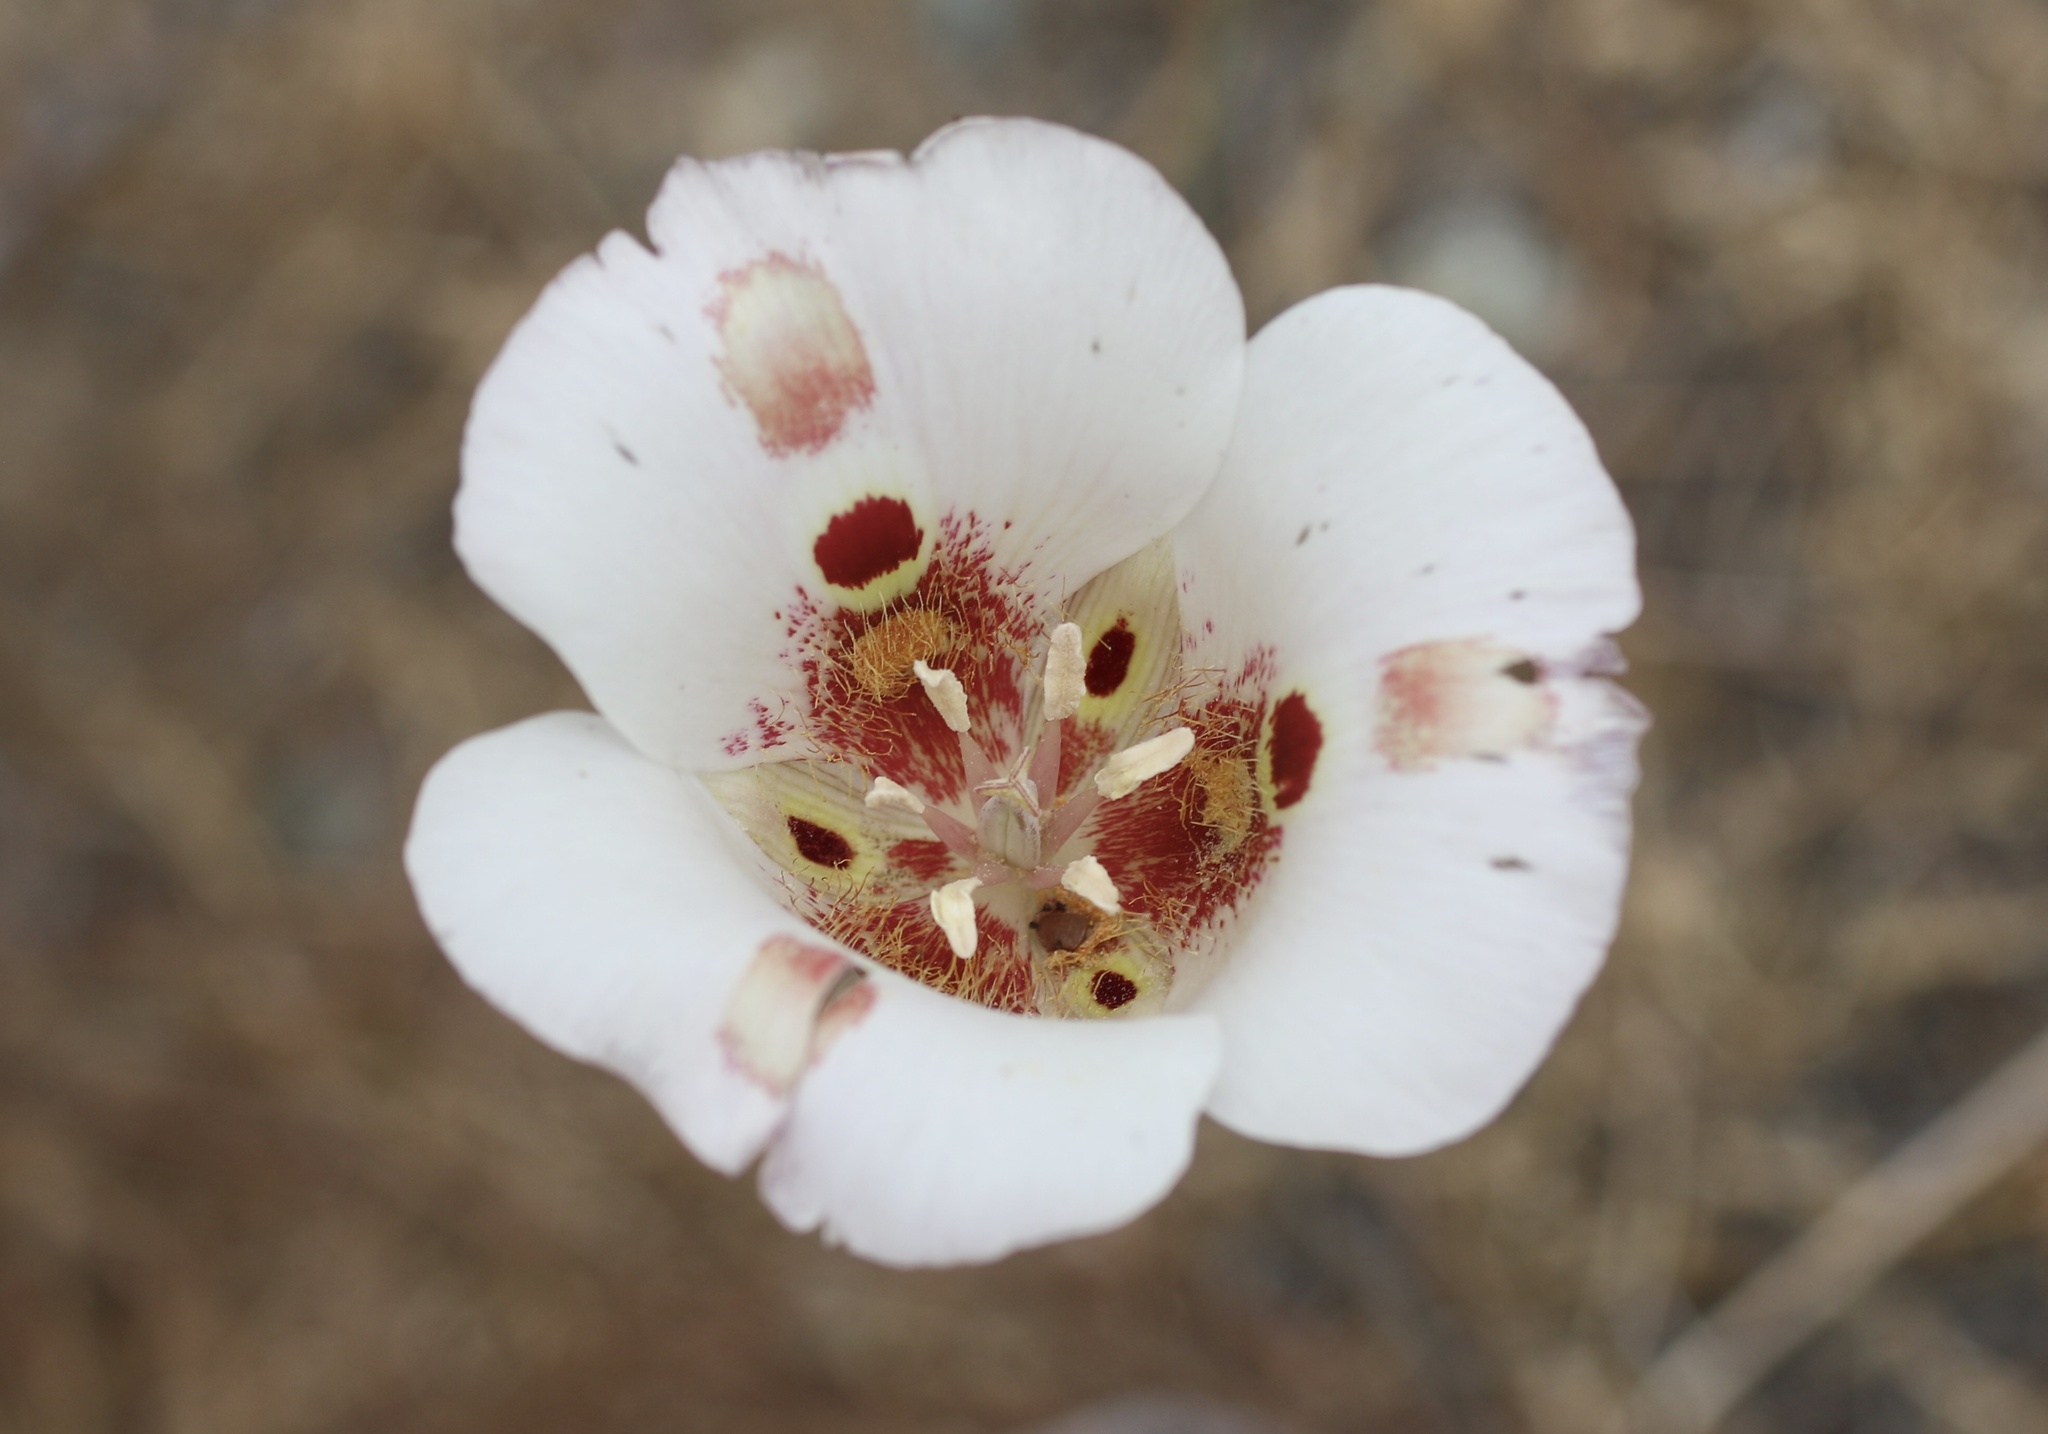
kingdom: Plantae
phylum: Tracheophyta
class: Liliopsida
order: Liliales
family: Liliaceae
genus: Calochortus
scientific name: Calochortus venustus
